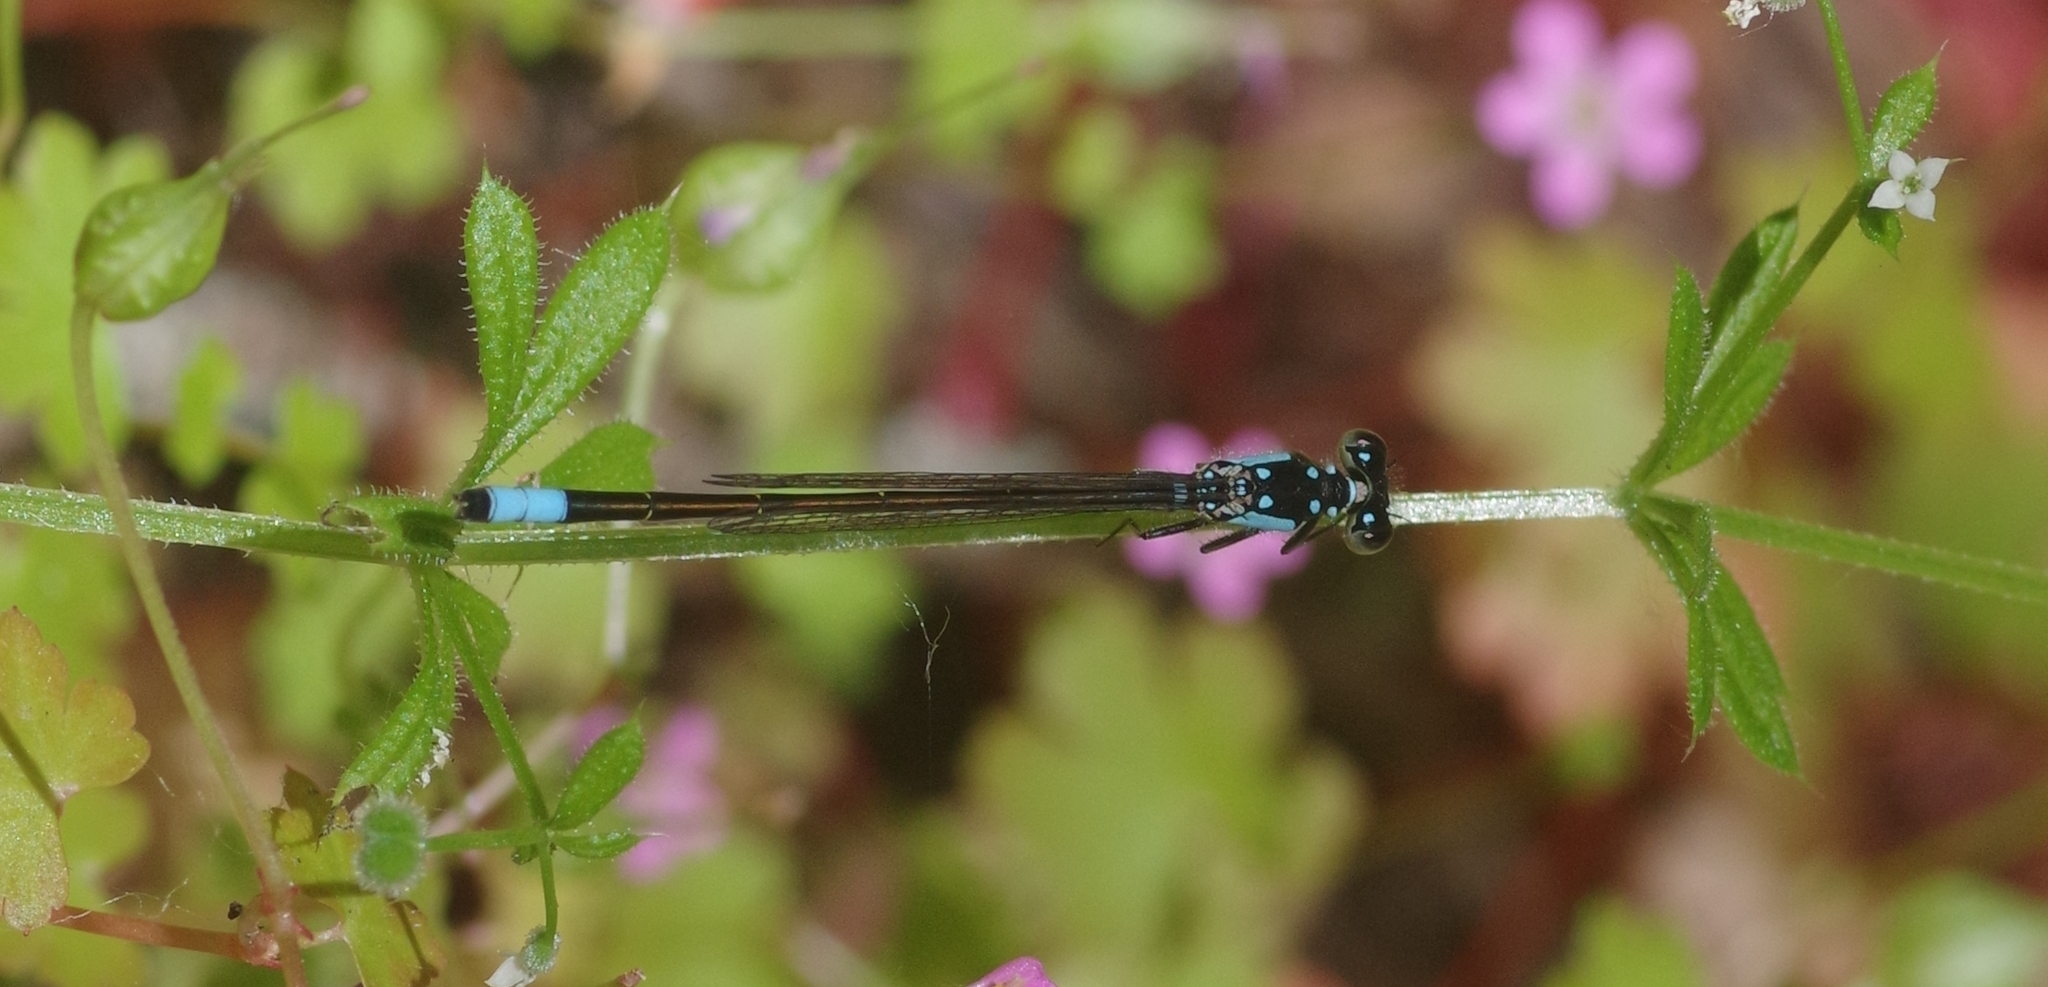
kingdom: Animalia
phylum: Arthropoda
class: Insecta
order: Odonata
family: Coenagrionidae
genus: Ischnura
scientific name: Ischnura cervula
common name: Pacific forktail
